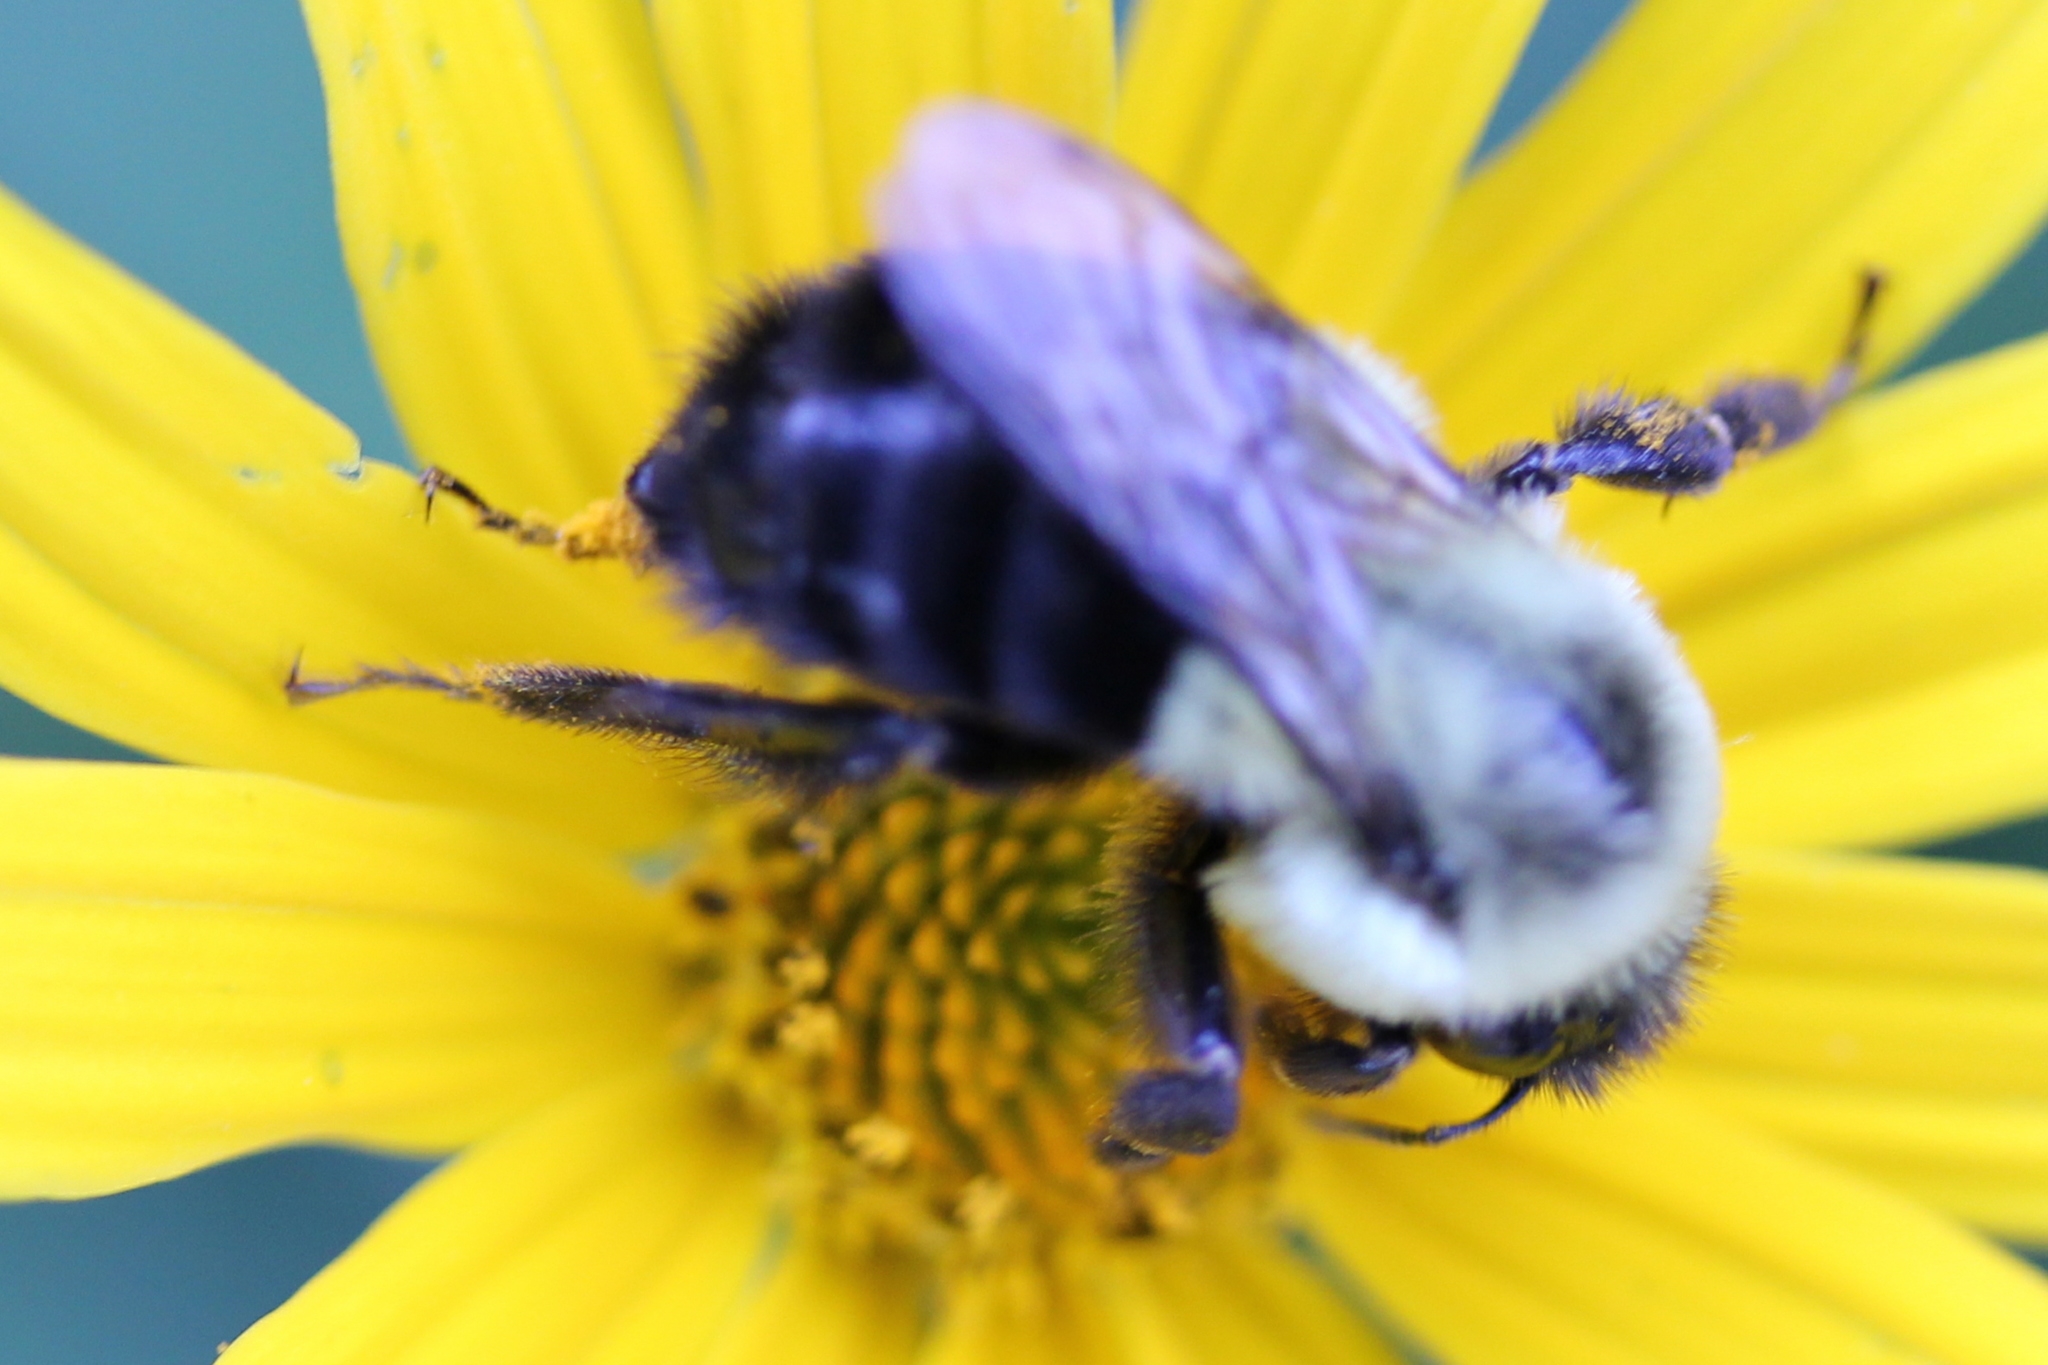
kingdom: Animalia
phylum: Arthropoda
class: Insecta
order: Hymenoptera
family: Apidae
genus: Bombus
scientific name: Bombus impatiens
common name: Common eastern bumble bee
